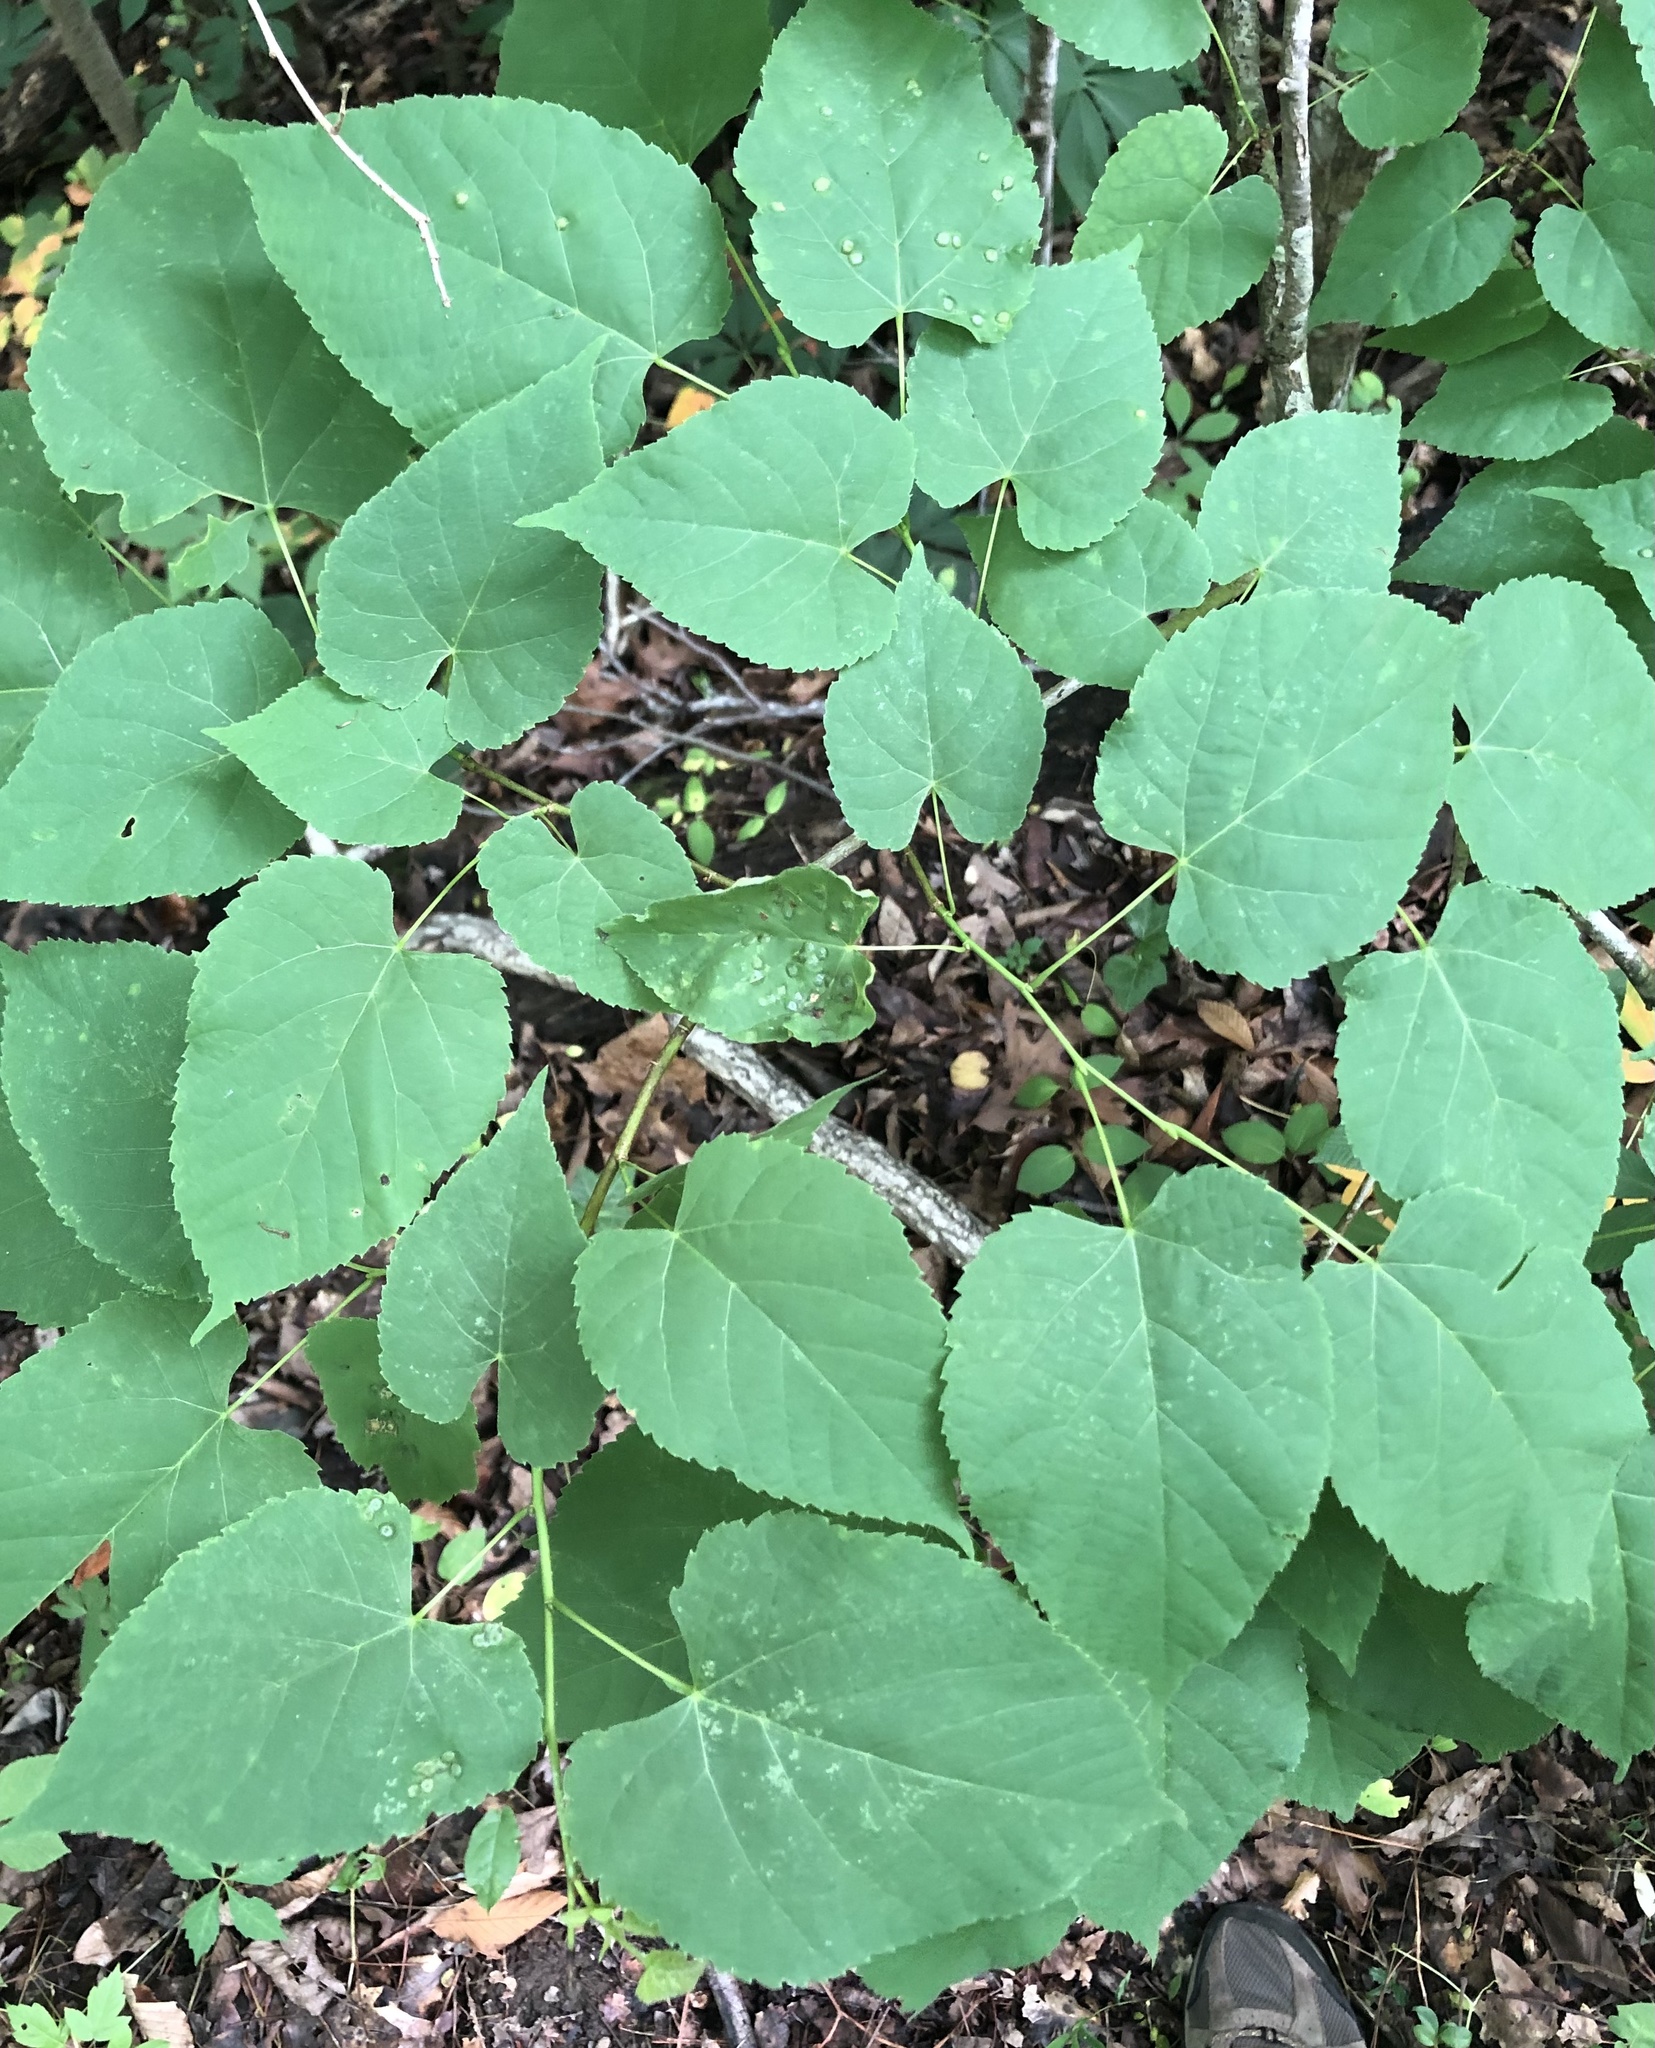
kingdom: Animalia
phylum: Arthropoda
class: Insecta
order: Diptera
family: Cecidomyiidae
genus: Contarinia
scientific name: Contarinia verrucicola
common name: Linden wart gall midge
